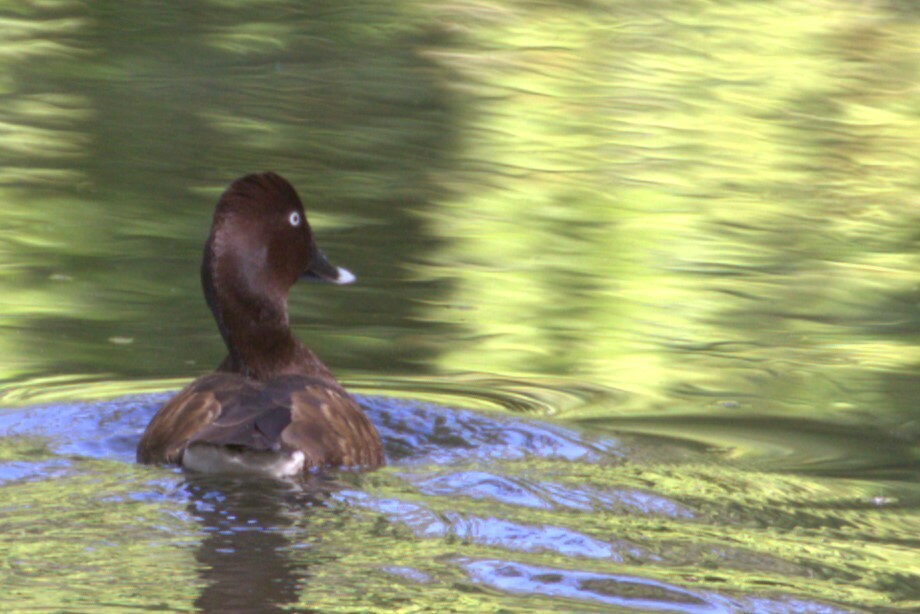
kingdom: Animalia
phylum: Chordata
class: Aves
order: Anseriformes
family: Anatidae
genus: Aythya
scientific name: Aythya australis
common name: Hardhead
